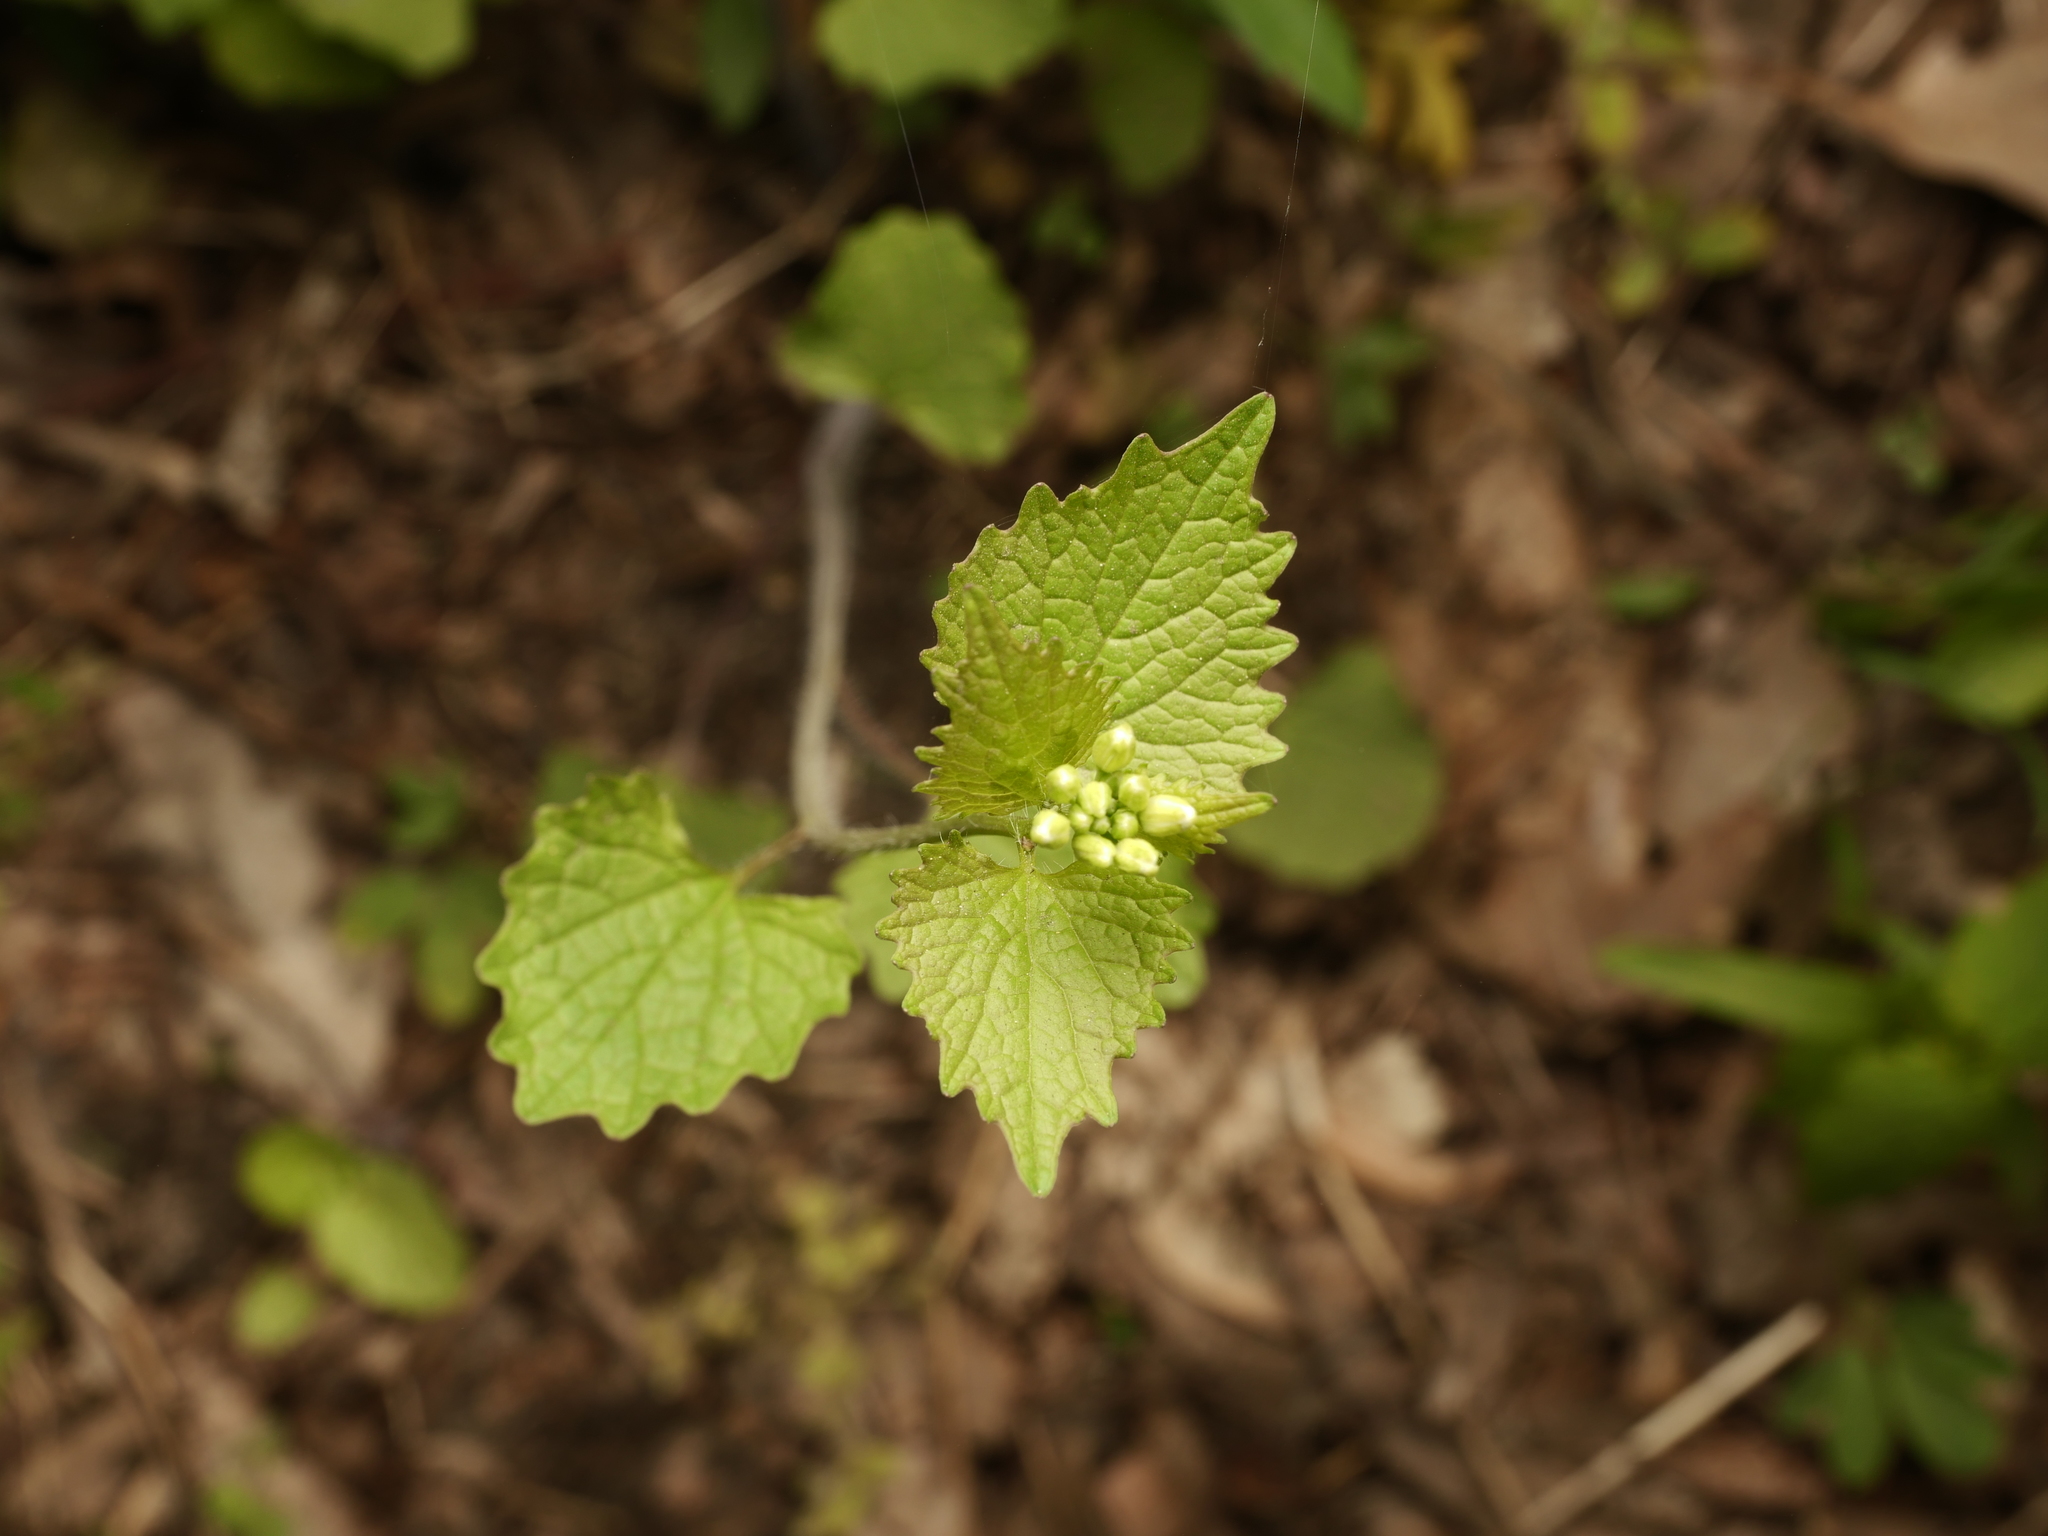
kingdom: Plantae
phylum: Tracheophyta
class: Magnoliopsida
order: Brassicales
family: Brassicaceae
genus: Alliaria
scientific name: Alliaria petiolata
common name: Garlic mustard
